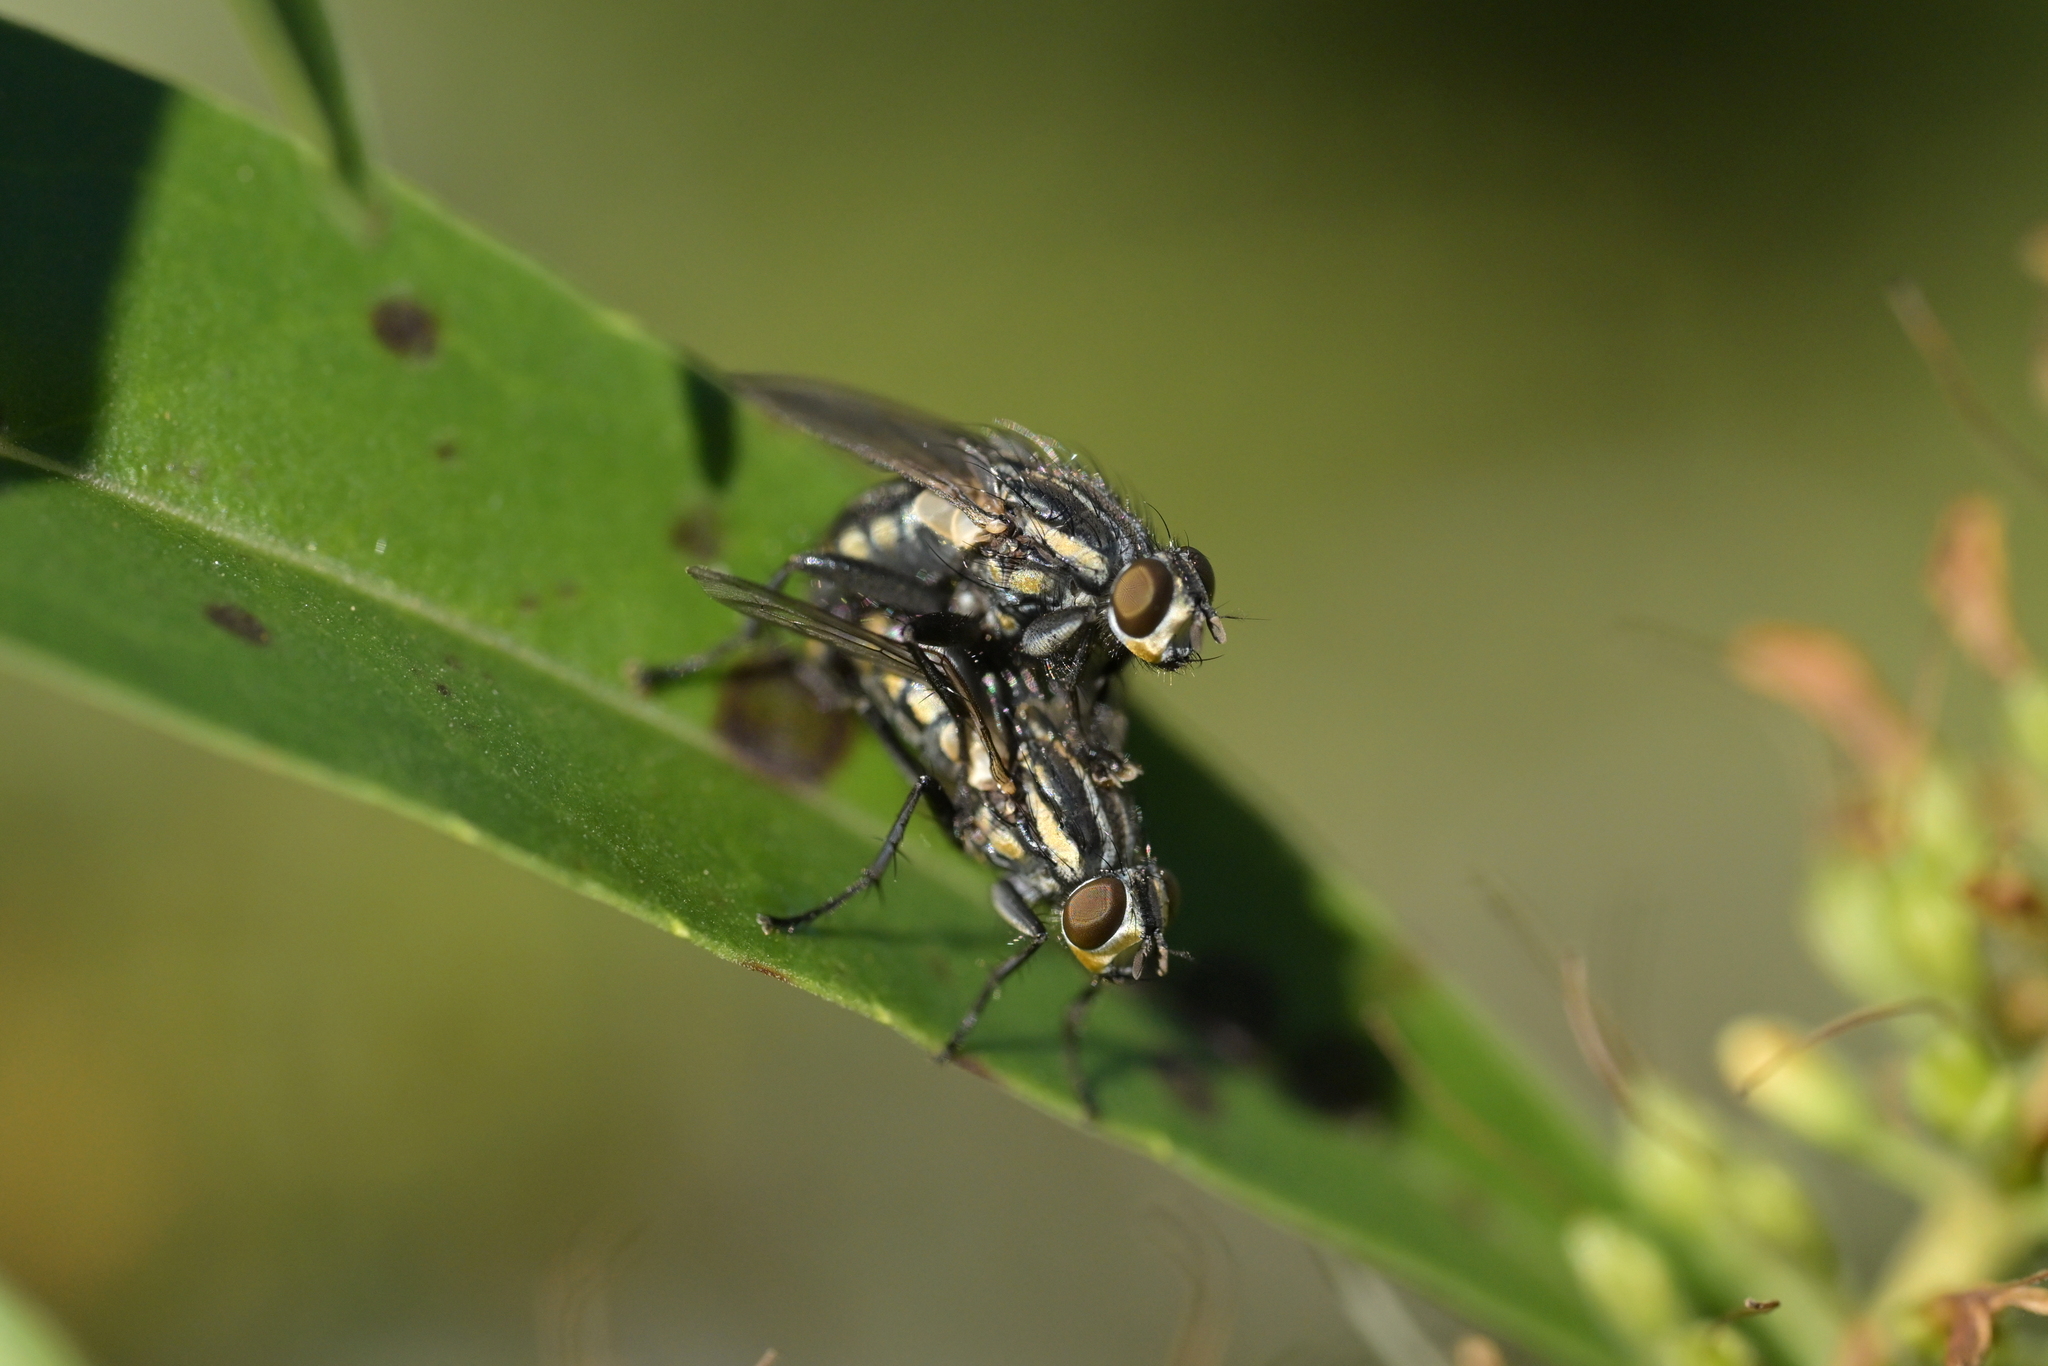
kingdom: Animalia
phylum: Arthropoda
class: Insecta
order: Diptera
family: Sarcophagidae
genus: Oxysarcodexia
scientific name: Oxysarcodexia varia
